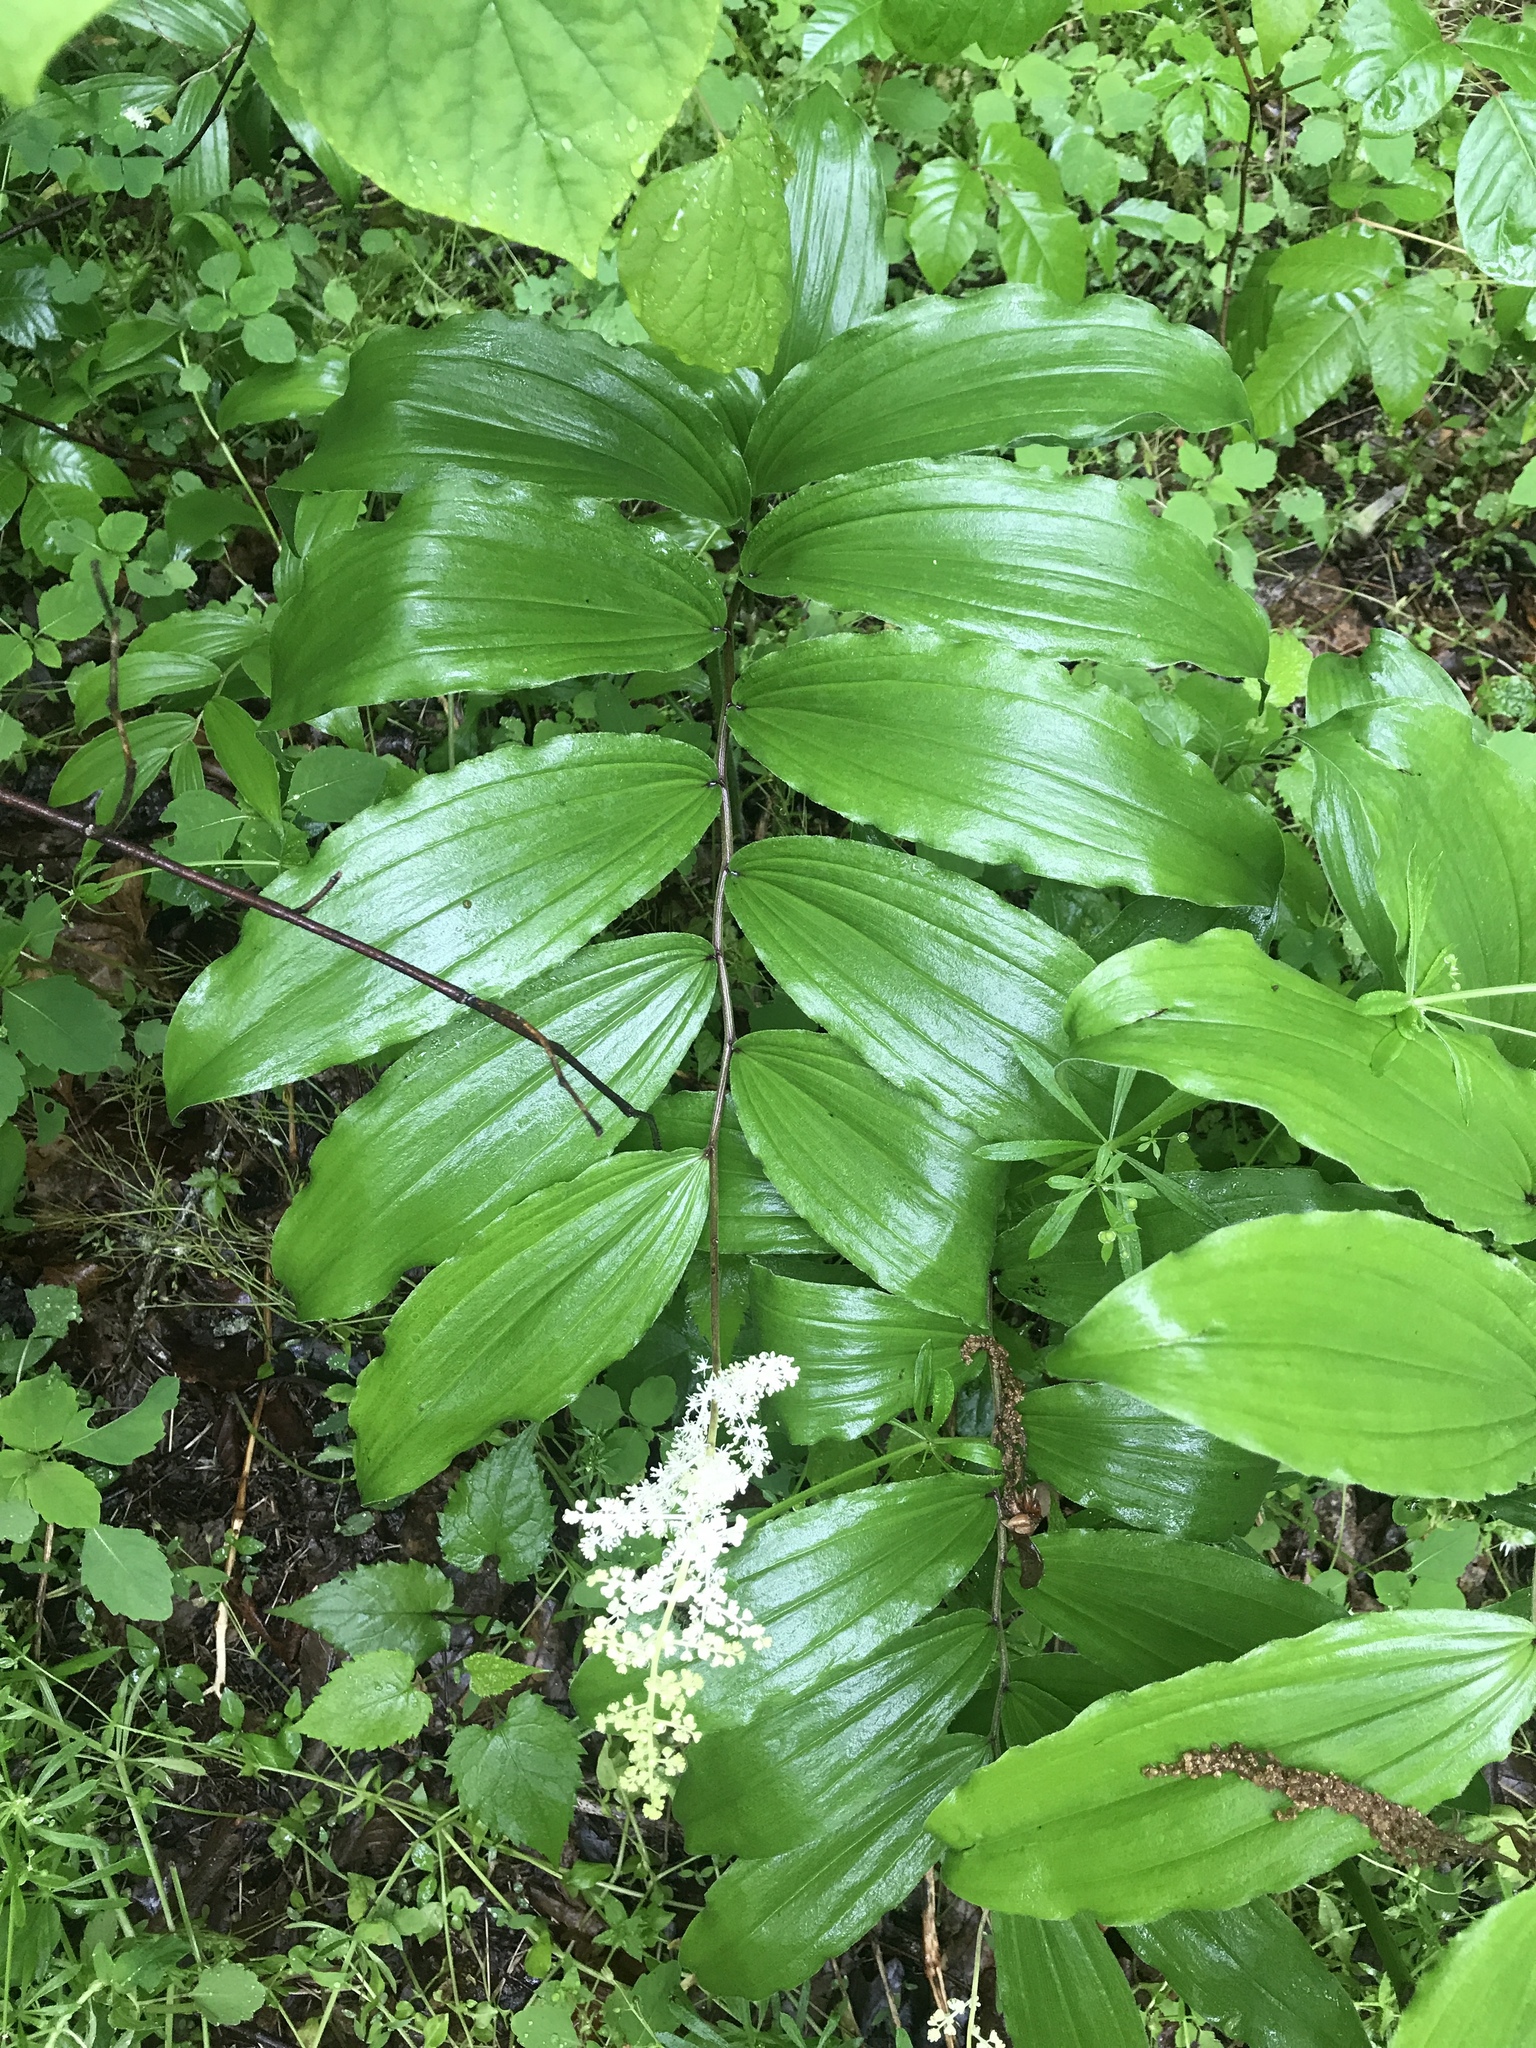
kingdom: Plantae
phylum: Tracheophyta
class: Liliopsida
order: Asparagales
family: Asparagaceae
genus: Maianthemum
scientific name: Maianthemum racemosum
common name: False spikenard
